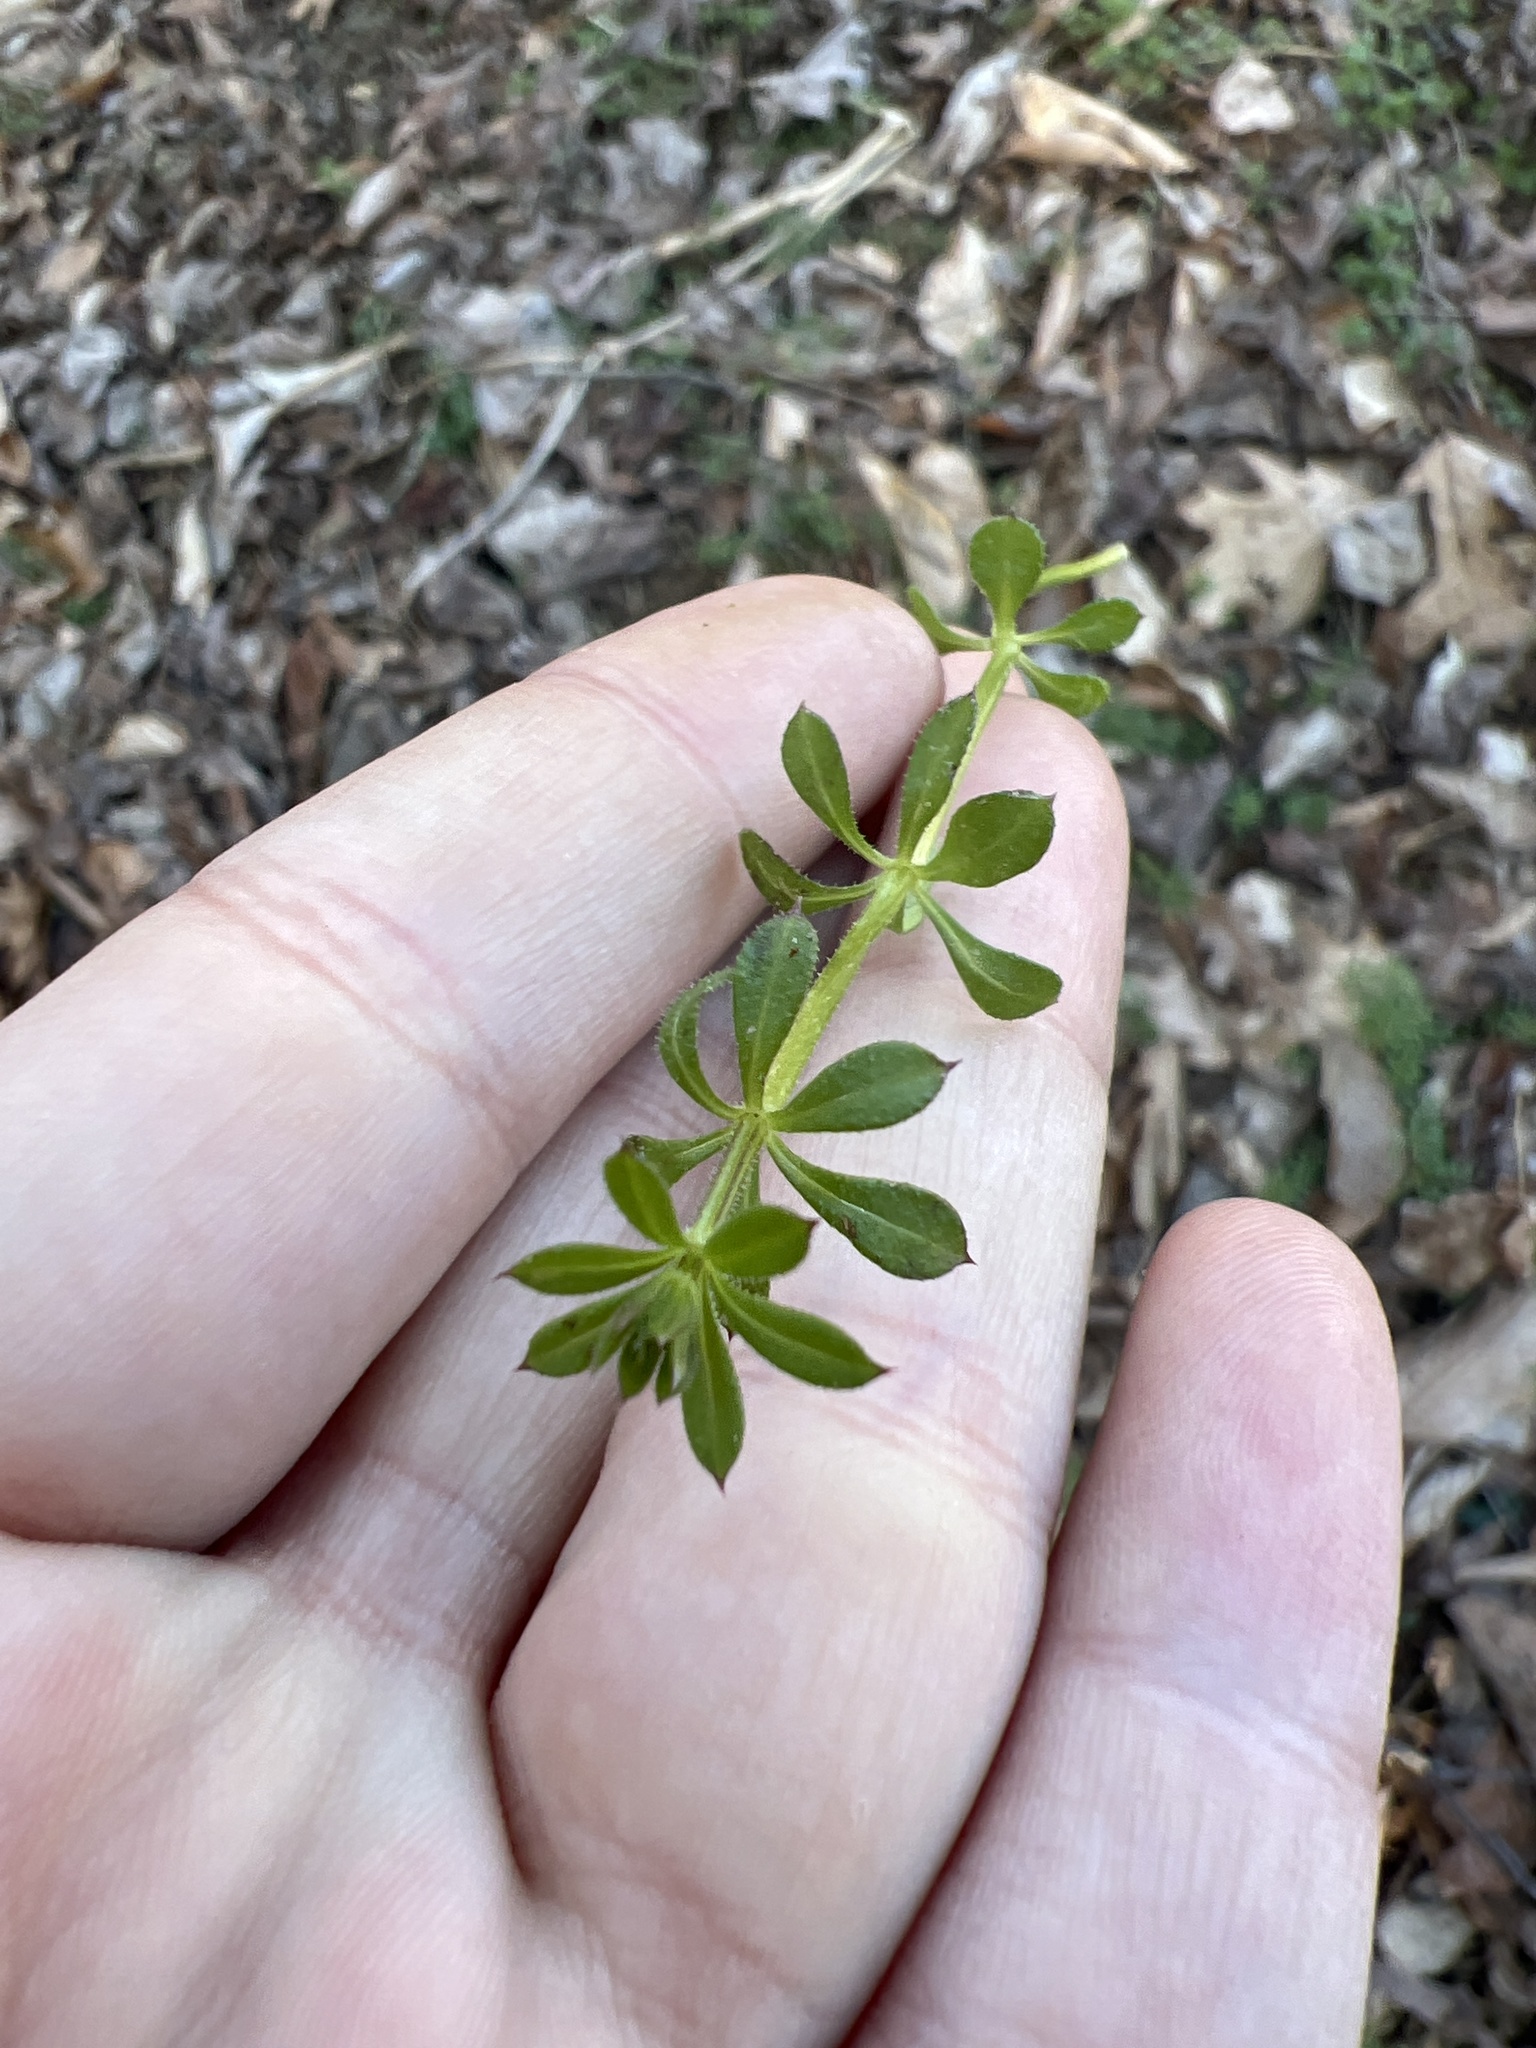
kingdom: Plantae
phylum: Tracheophyta
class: Magnoliopsida
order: Gentianales
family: Rubiaceae
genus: Galium
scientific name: Galium aparine
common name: Cleavers
